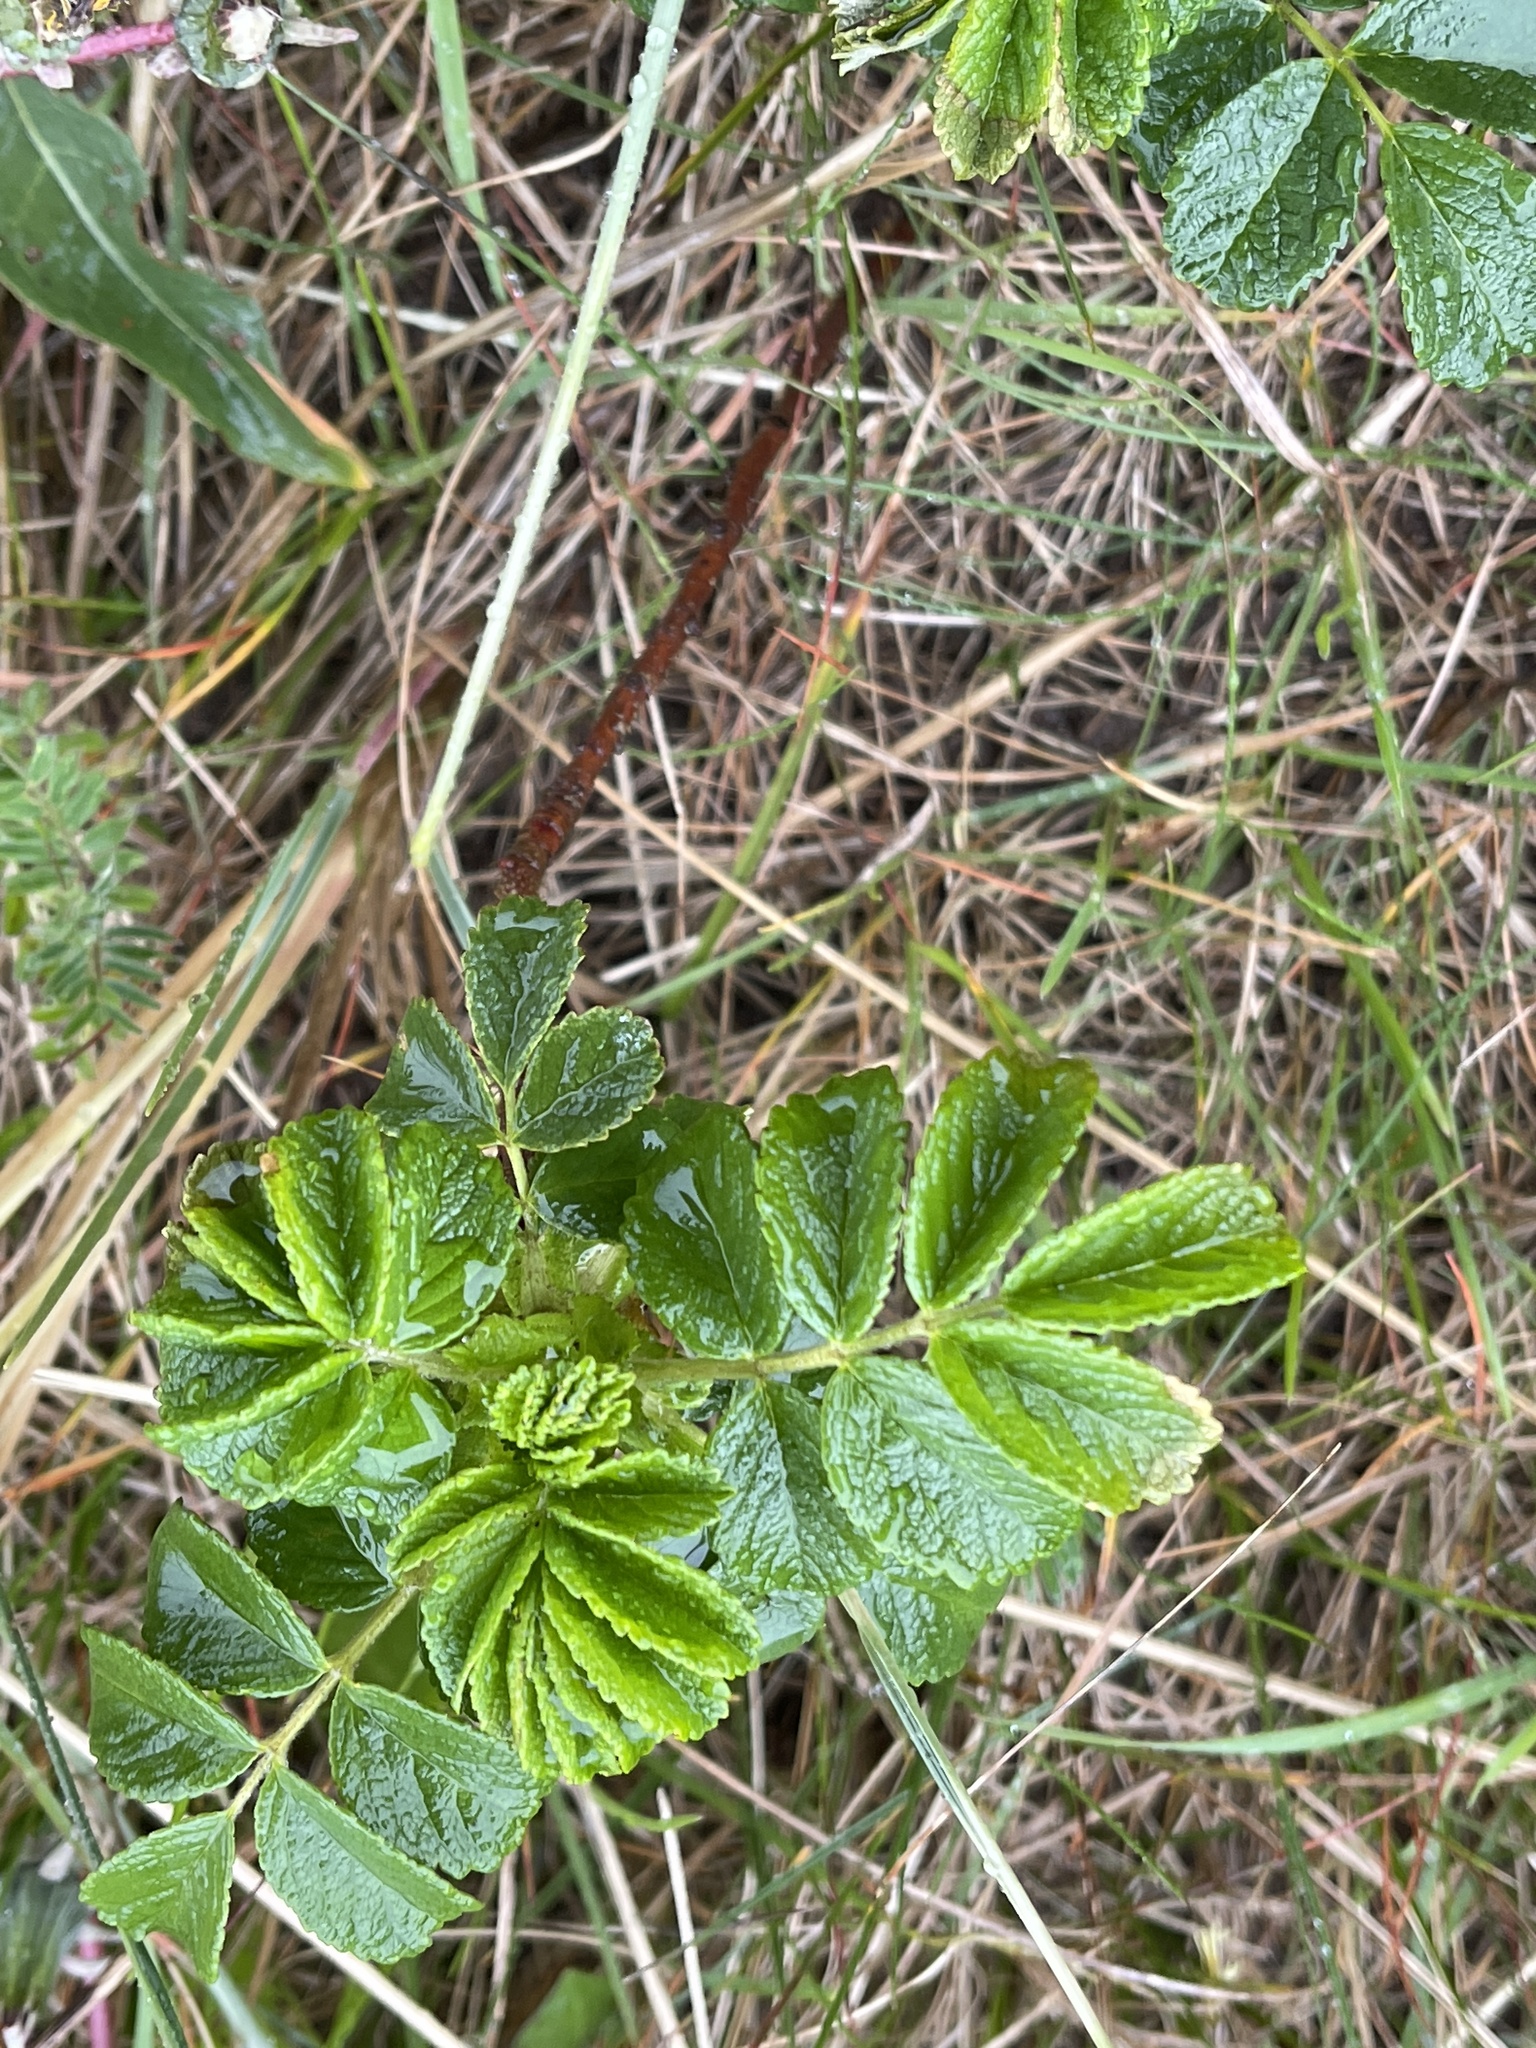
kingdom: Plantae
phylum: Tracheophyta
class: Magnoliopsida
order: Rosales
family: Rosaceae
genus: Rosa
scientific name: Rosa rugosa
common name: Japanese rose
